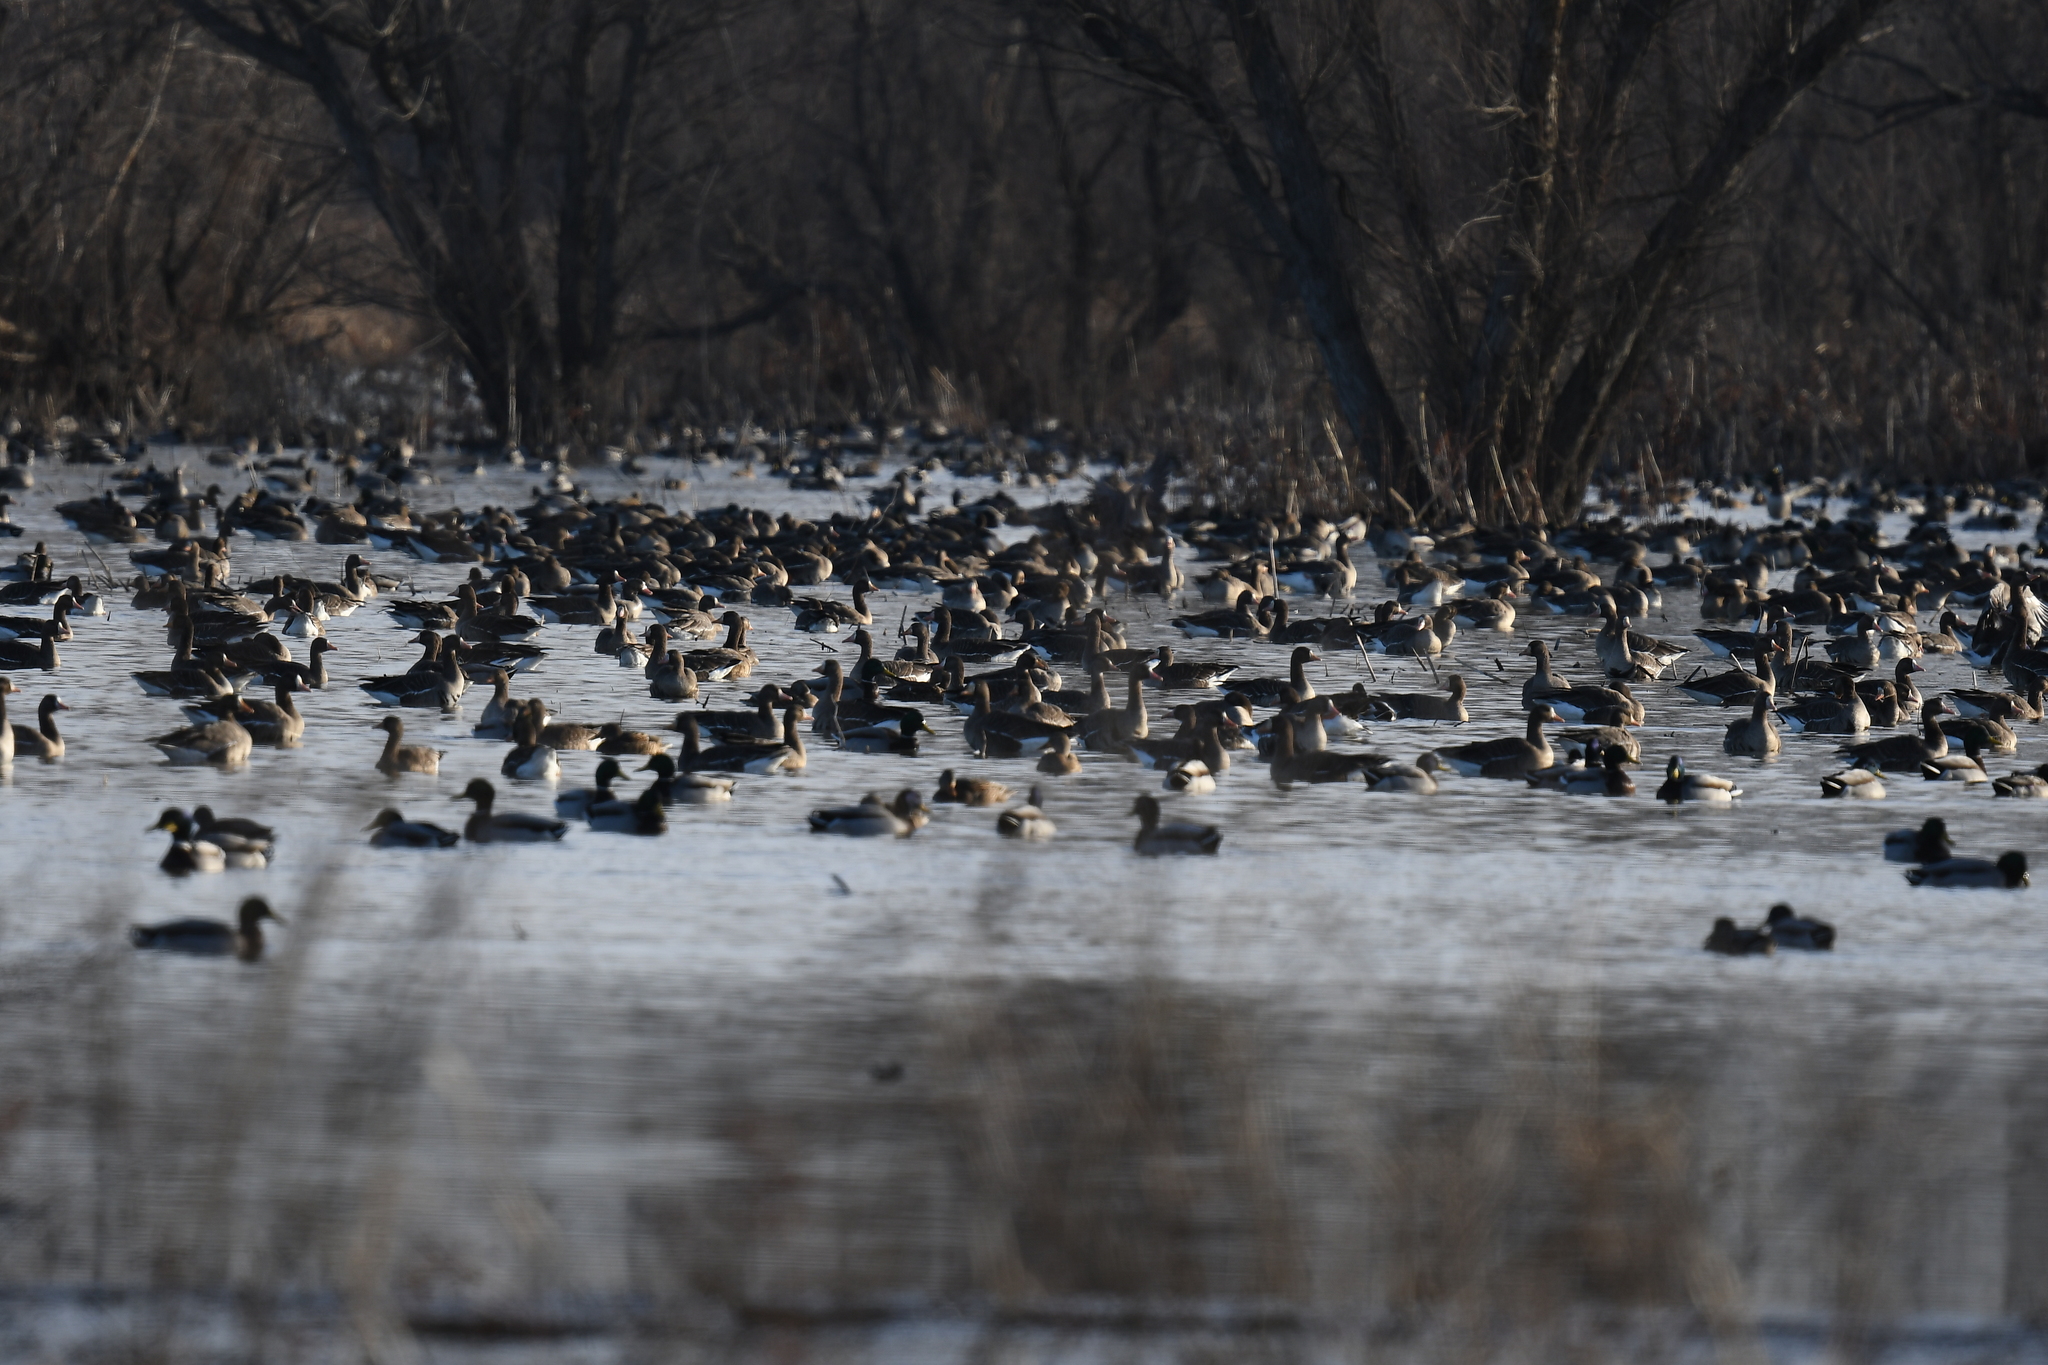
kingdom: Animalia
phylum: Chordata
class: Aves
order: Anseriformes
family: Anatidae
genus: Anser
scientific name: Anser albifrons
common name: Greater white-fronted goose
